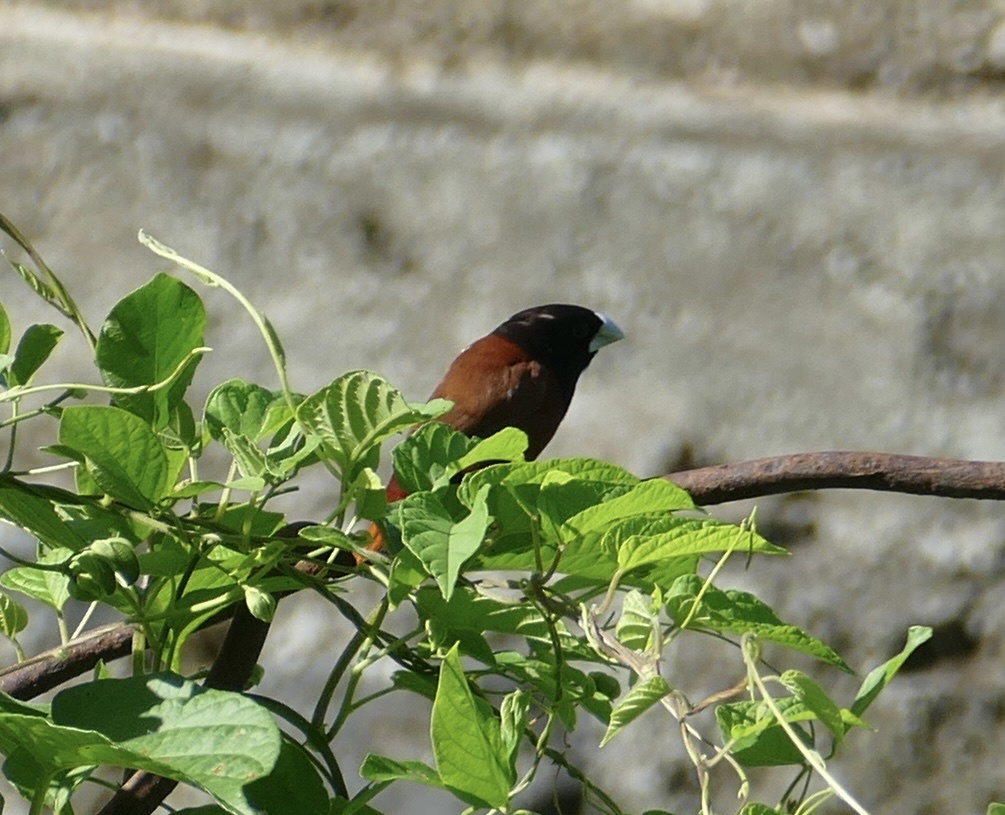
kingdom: Animalia
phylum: Chordata
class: Aves
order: Passeriformes
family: Estrildidae
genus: Lonchura
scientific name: Lonchura atricapilla
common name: Chestnut munia
